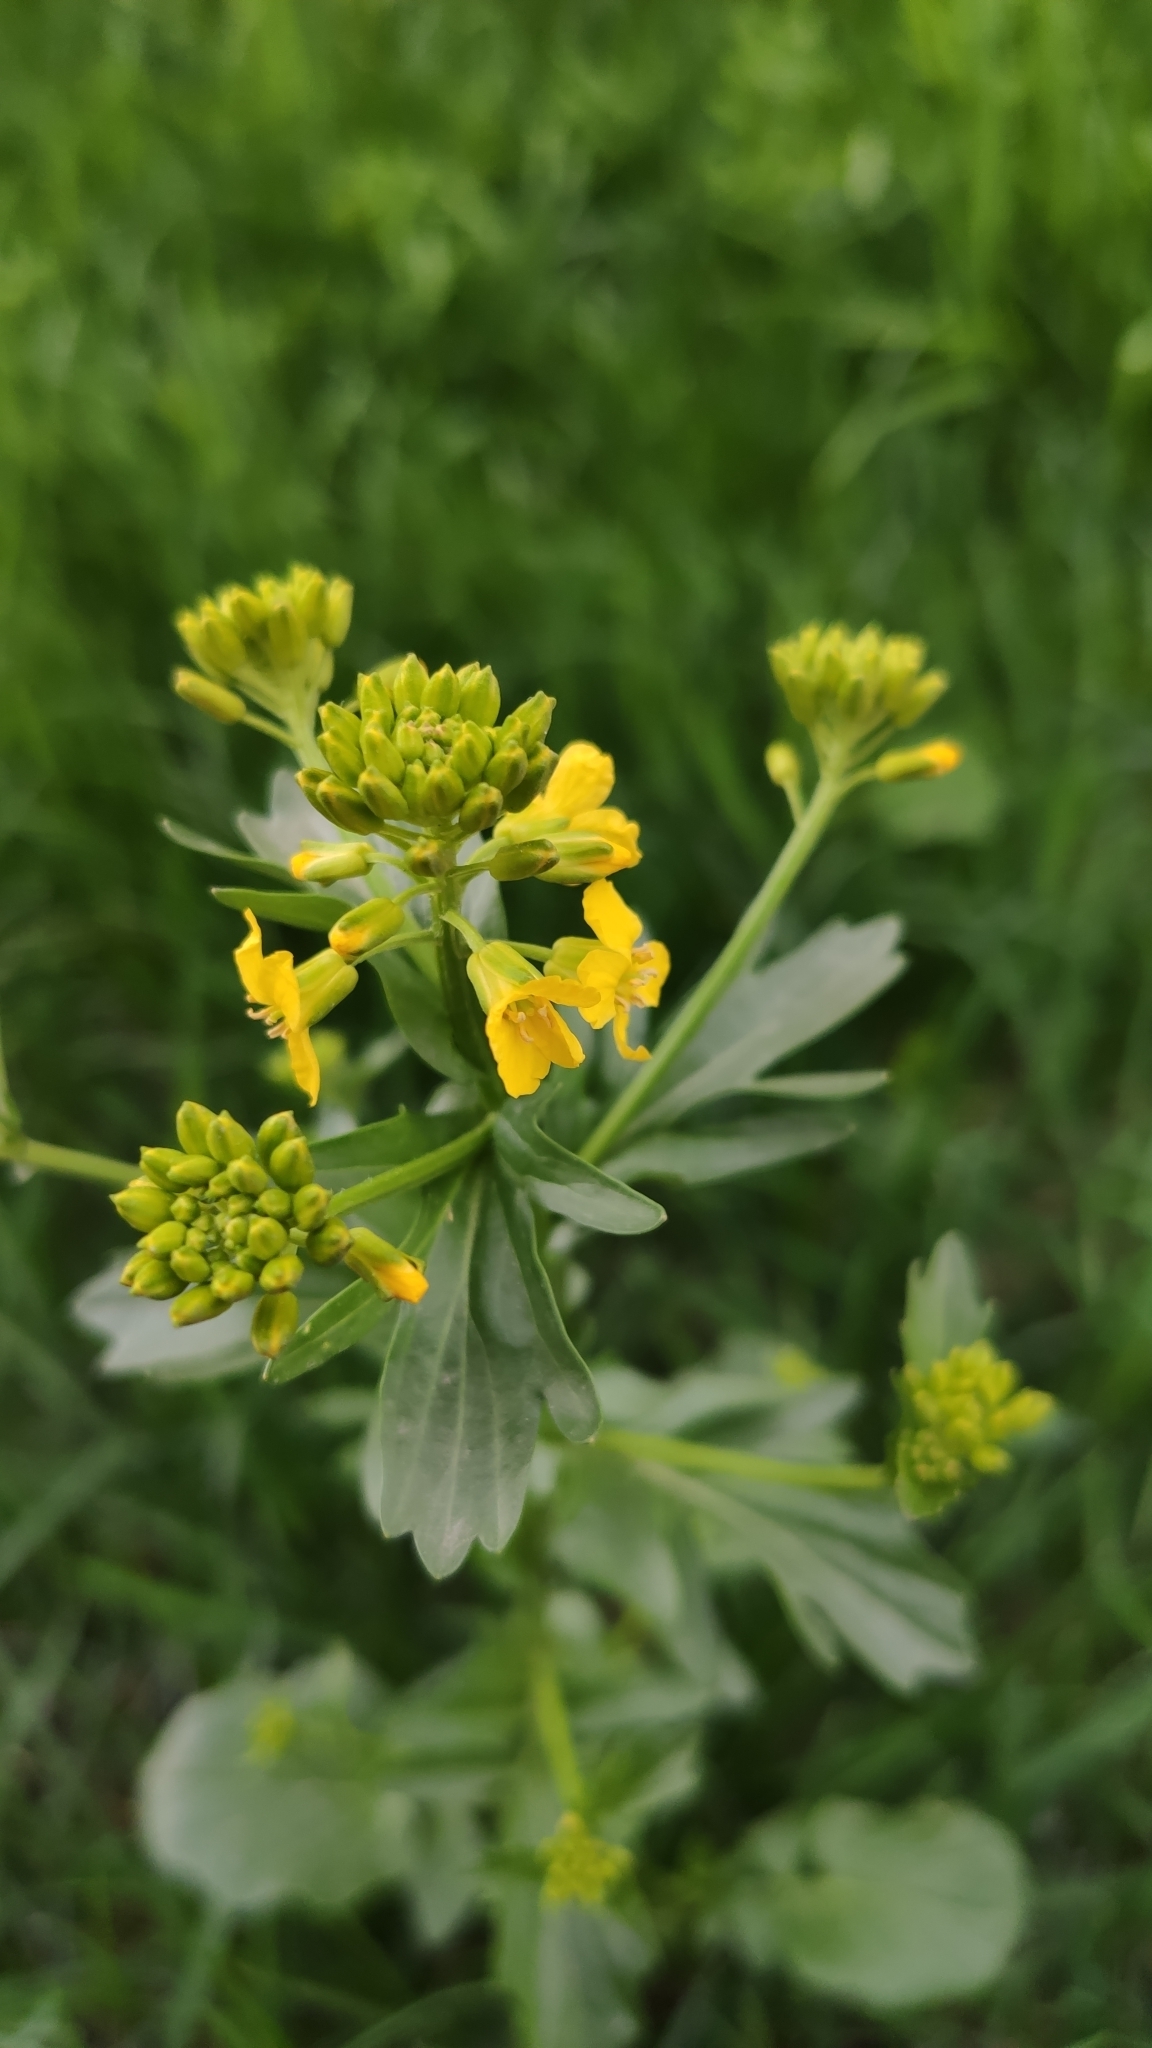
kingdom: Plantae
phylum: Tracheophyta
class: Magnoliopsida
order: Brassicales
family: Brassicaceae
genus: Barbarea
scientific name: Barbarea vulgaris
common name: Cressy-greens
